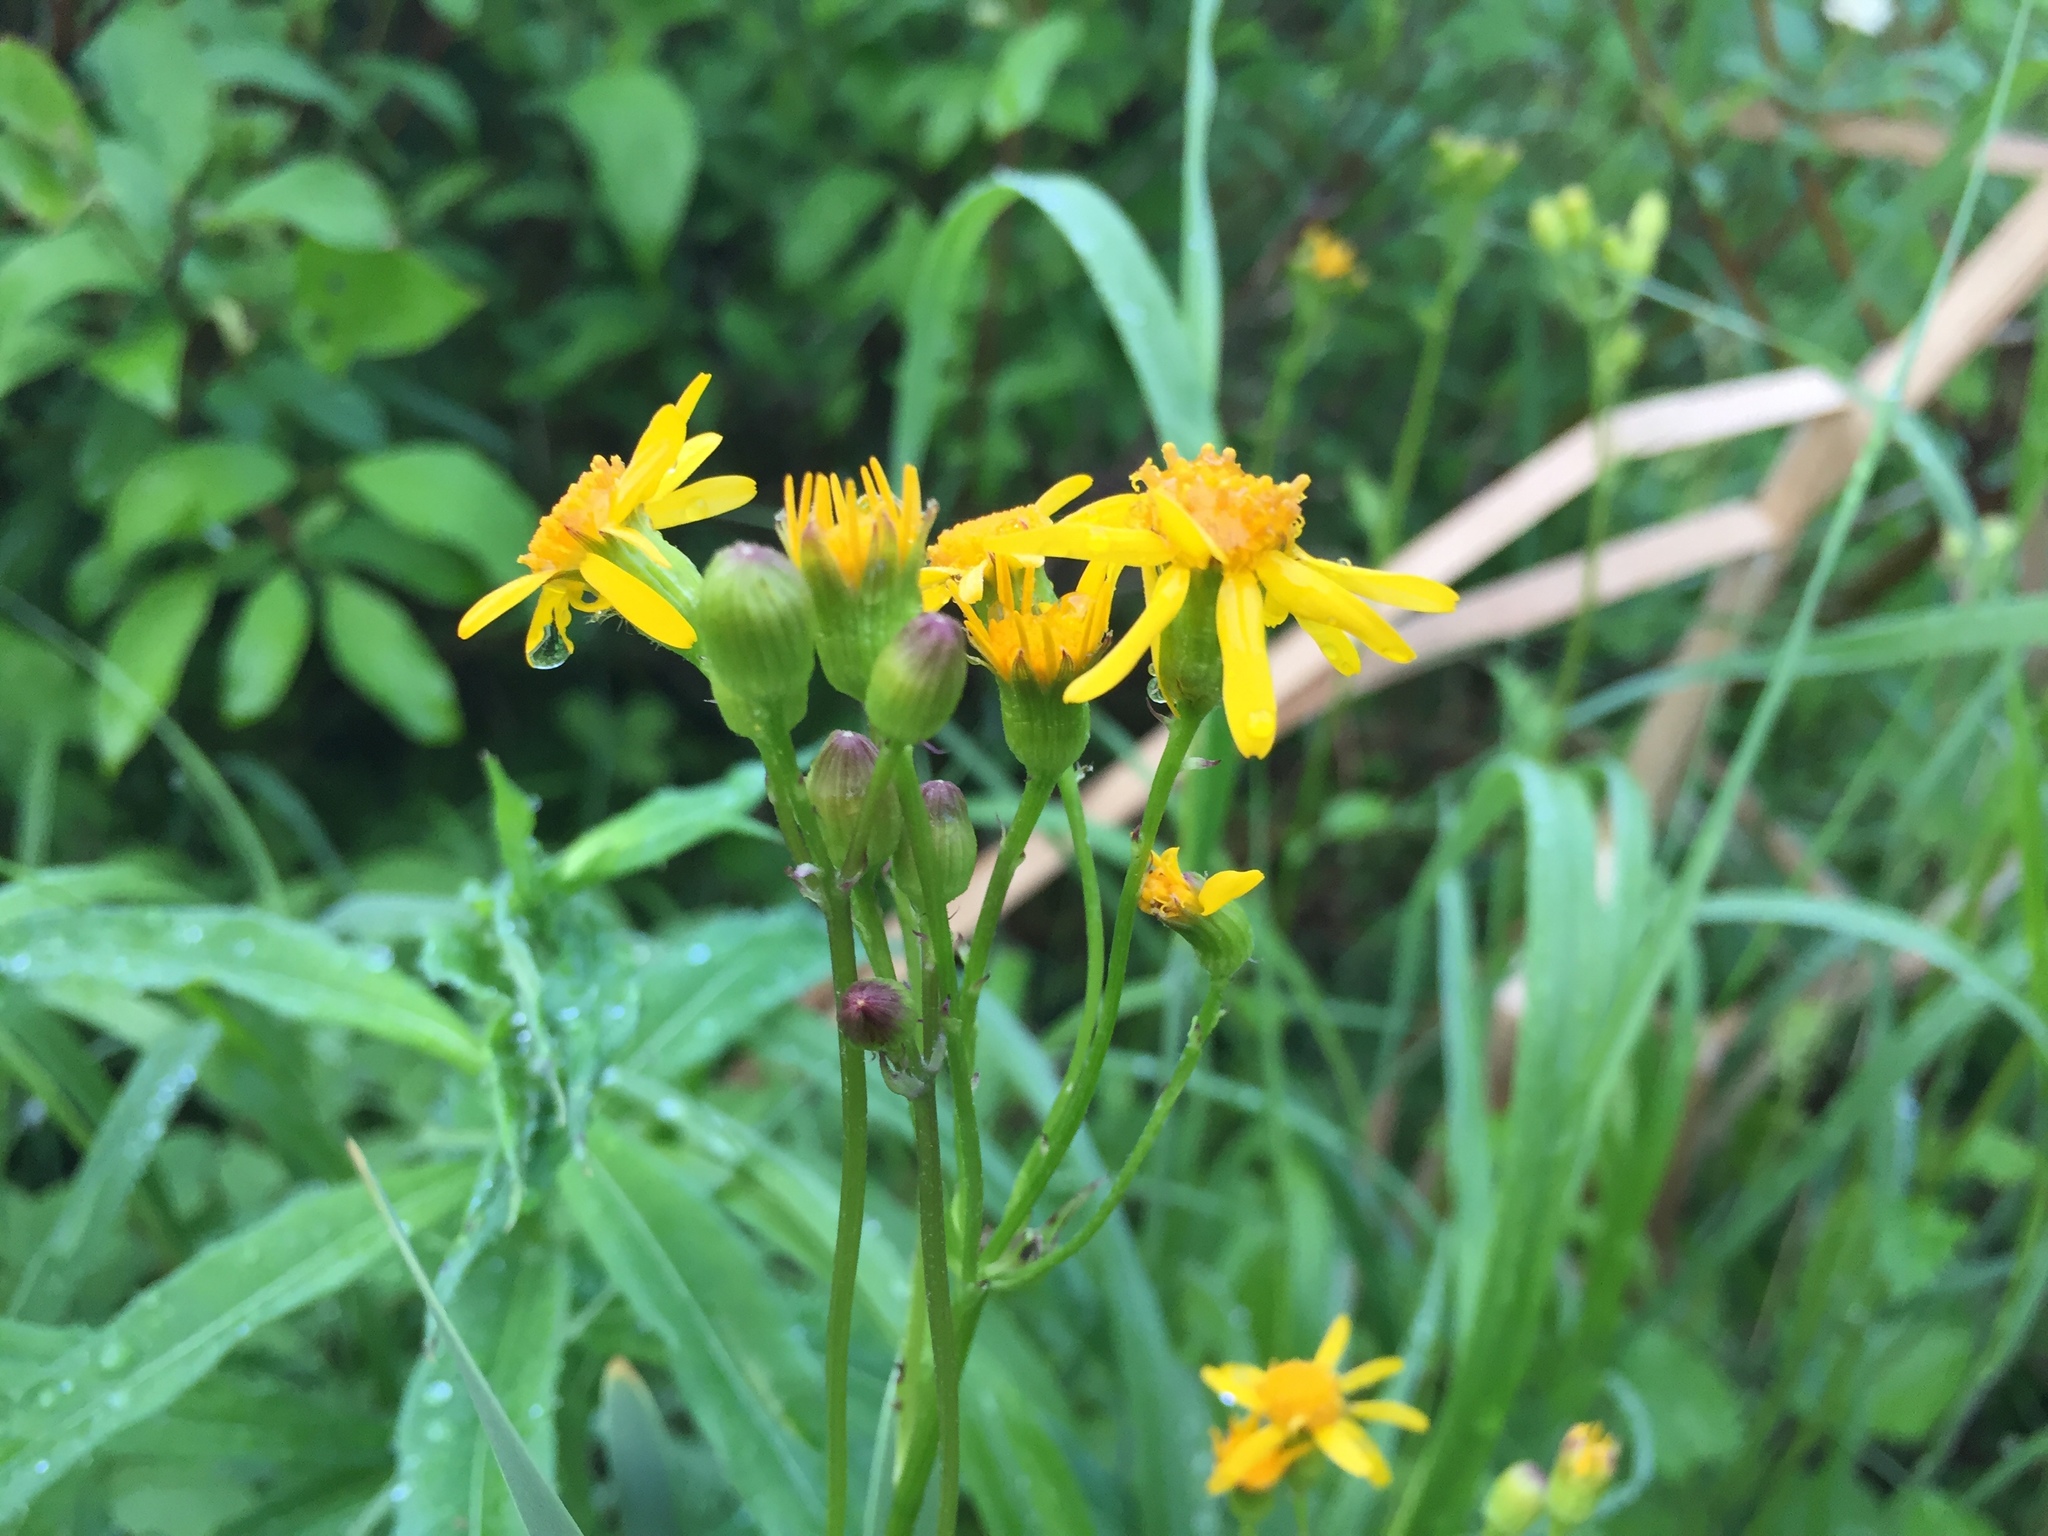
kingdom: Plantae
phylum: Tracheophyta
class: Magnoliopsida
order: Asterales
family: Asteraceae
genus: Packera
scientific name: Packera aurea
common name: Golden groundsel
